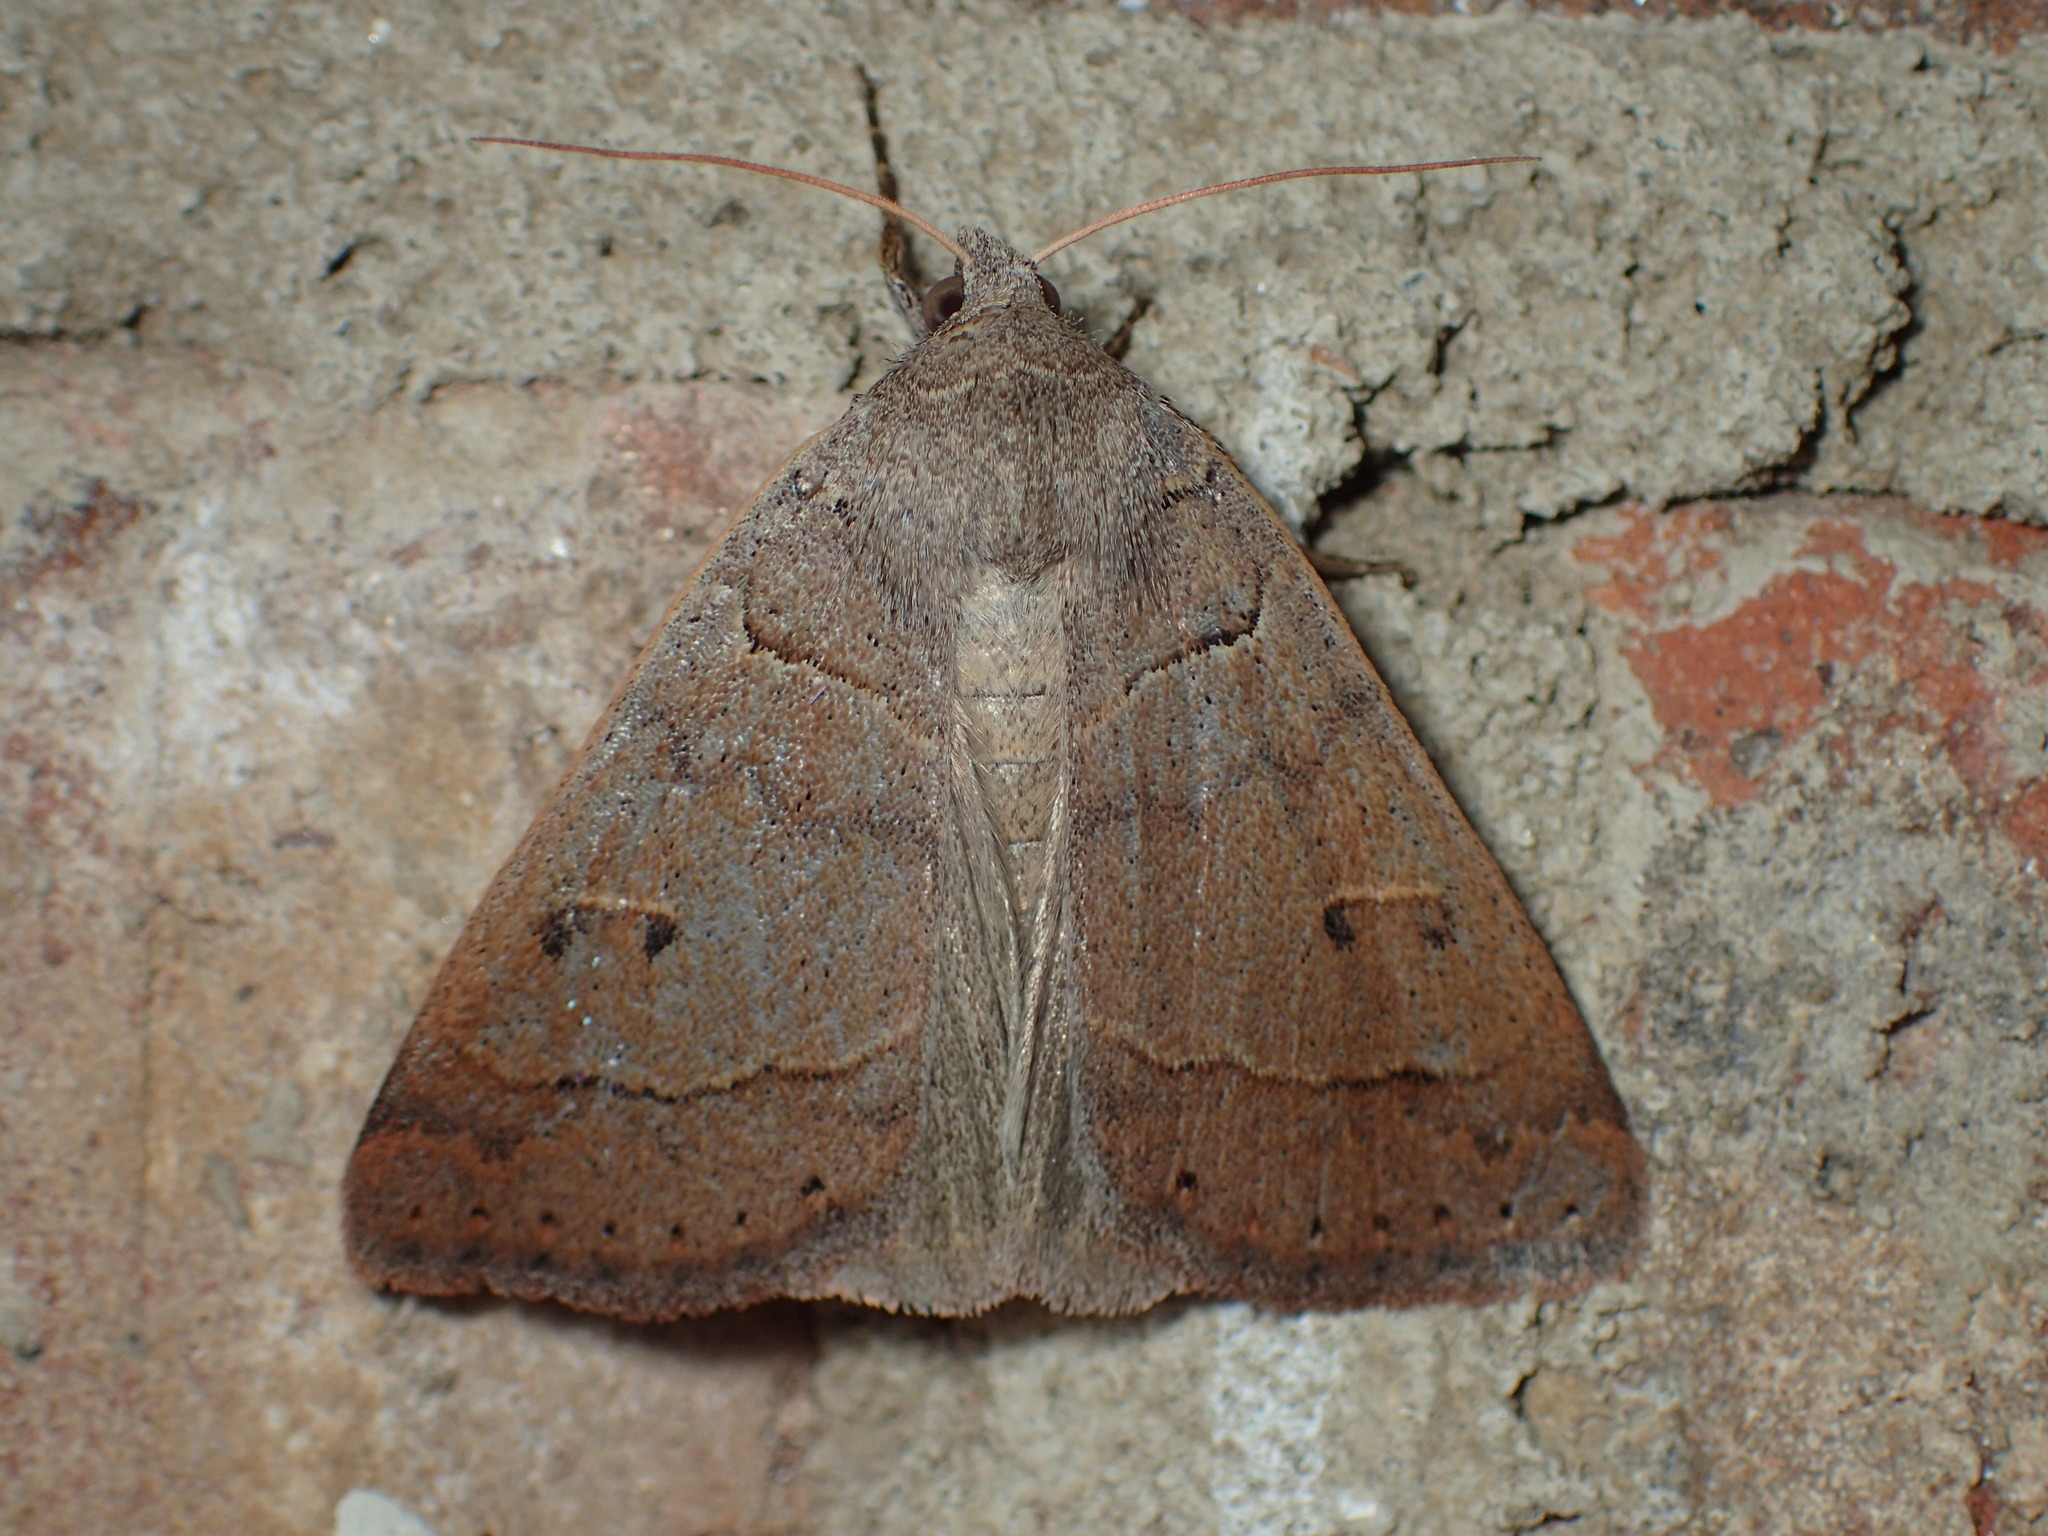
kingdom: Animalia
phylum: Arthropoda
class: Insecta
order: Lepidoptera
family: Erebidae
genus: Phoberia
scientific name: Phoberia atomaris
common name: Common oak moth
